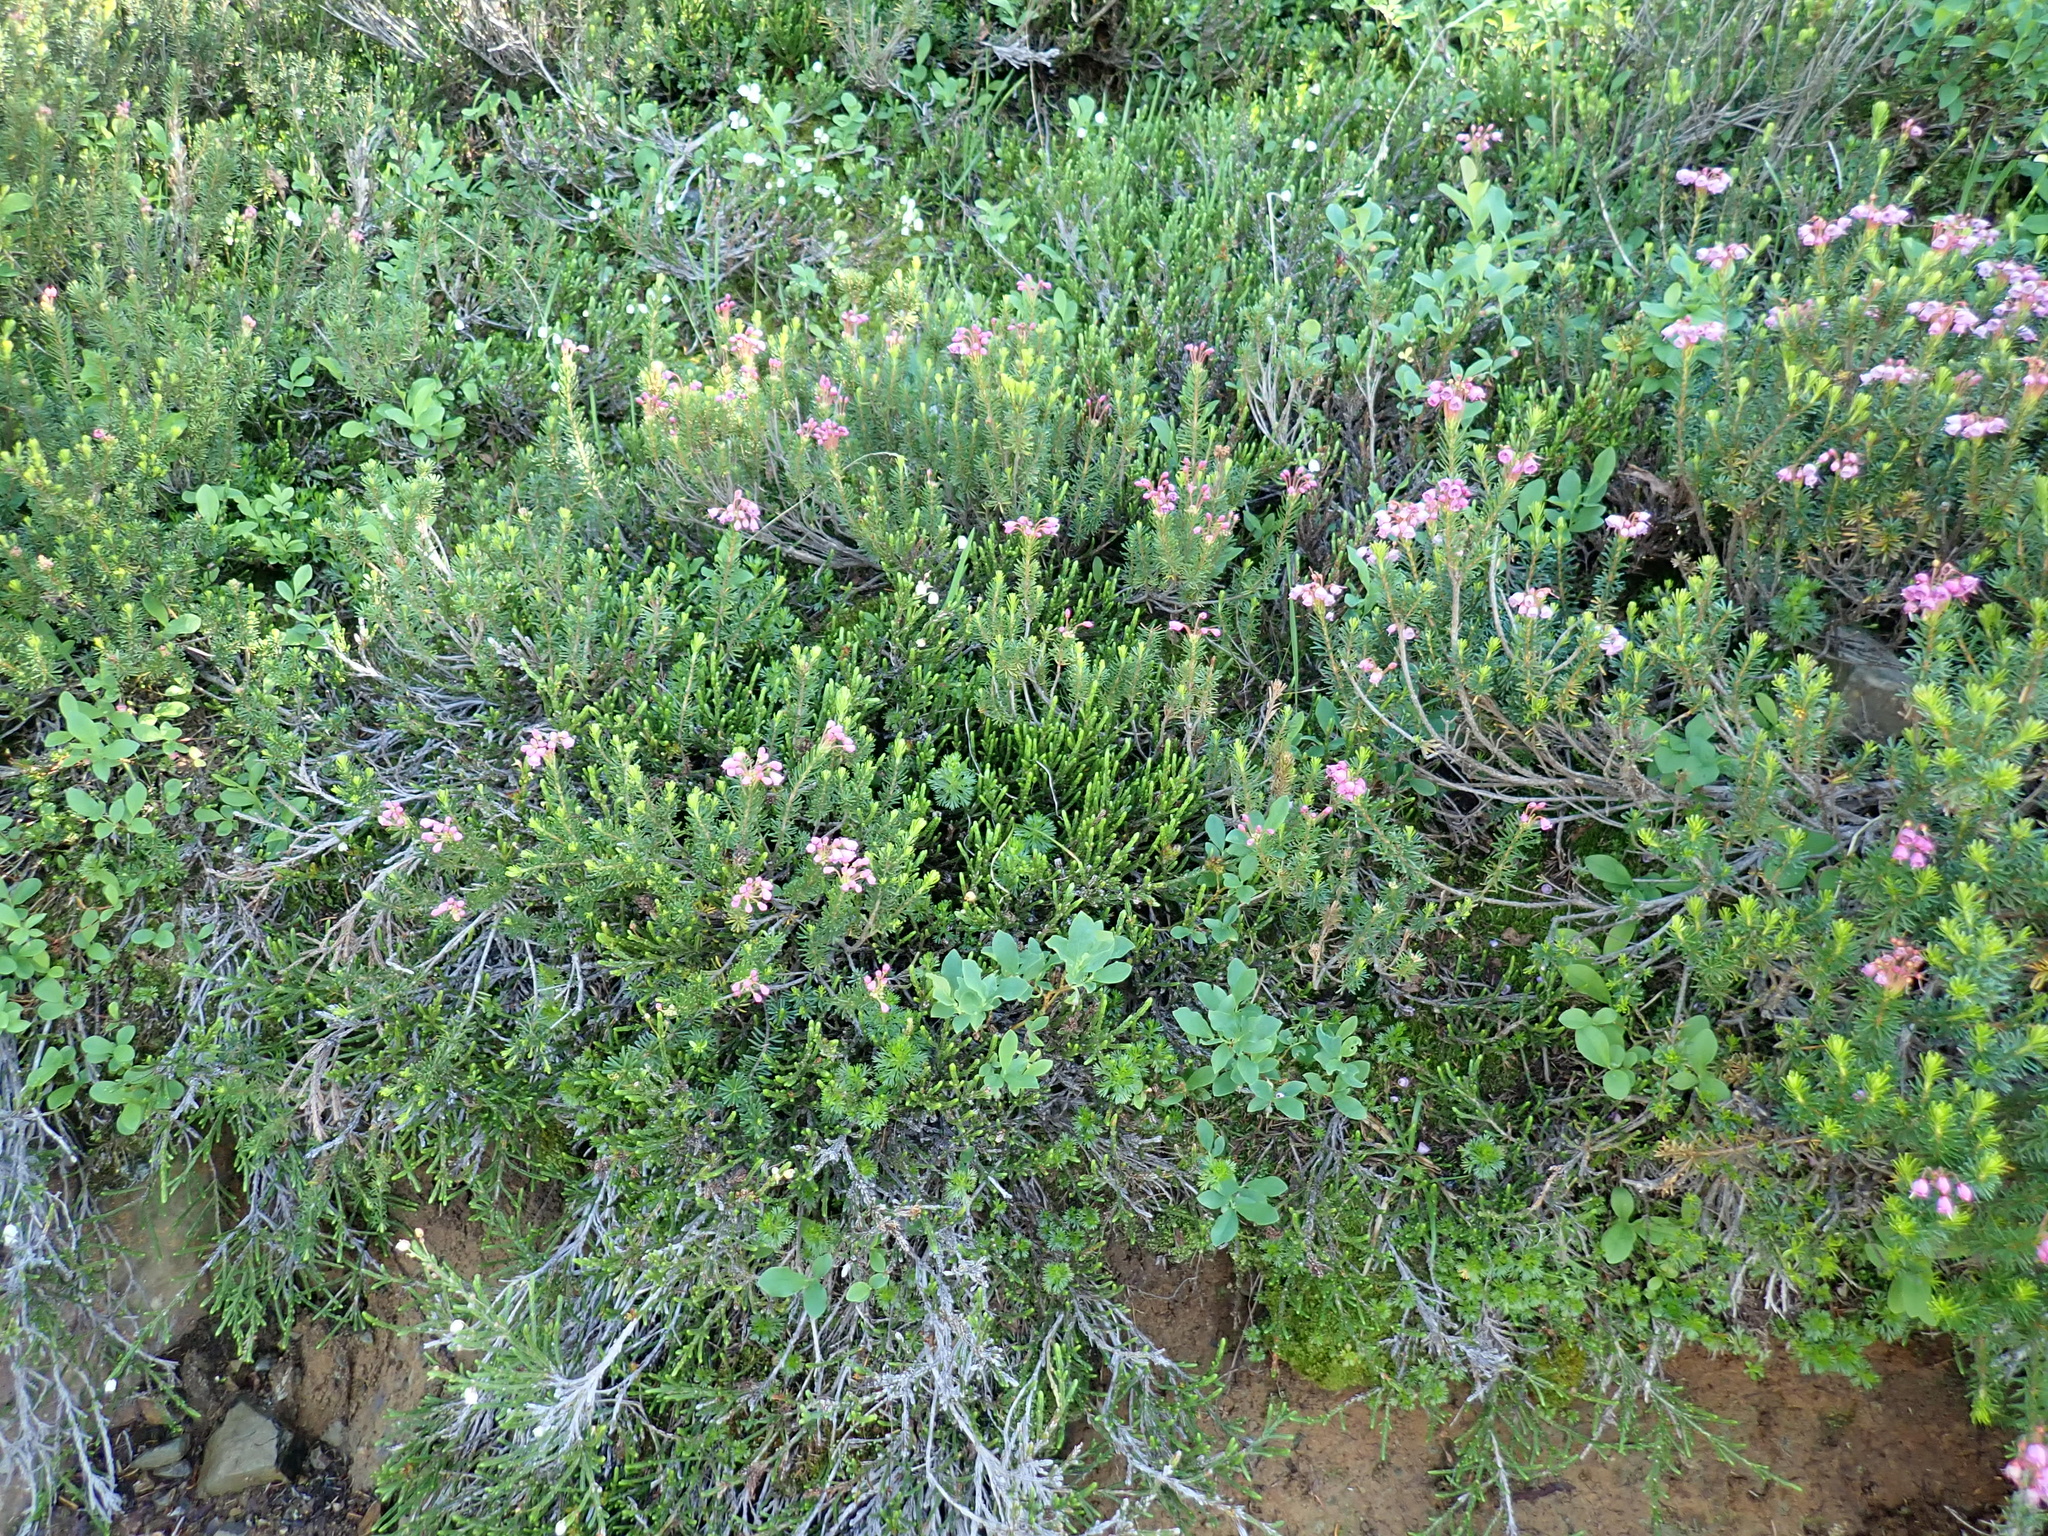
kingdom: Plantae
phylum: Tracheophyta
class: Magnoliopsida
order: Ericales
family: Ericaceae
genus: Phyllodoce
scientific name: Phyllodoce empetriformis
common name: Pink mountain heather
